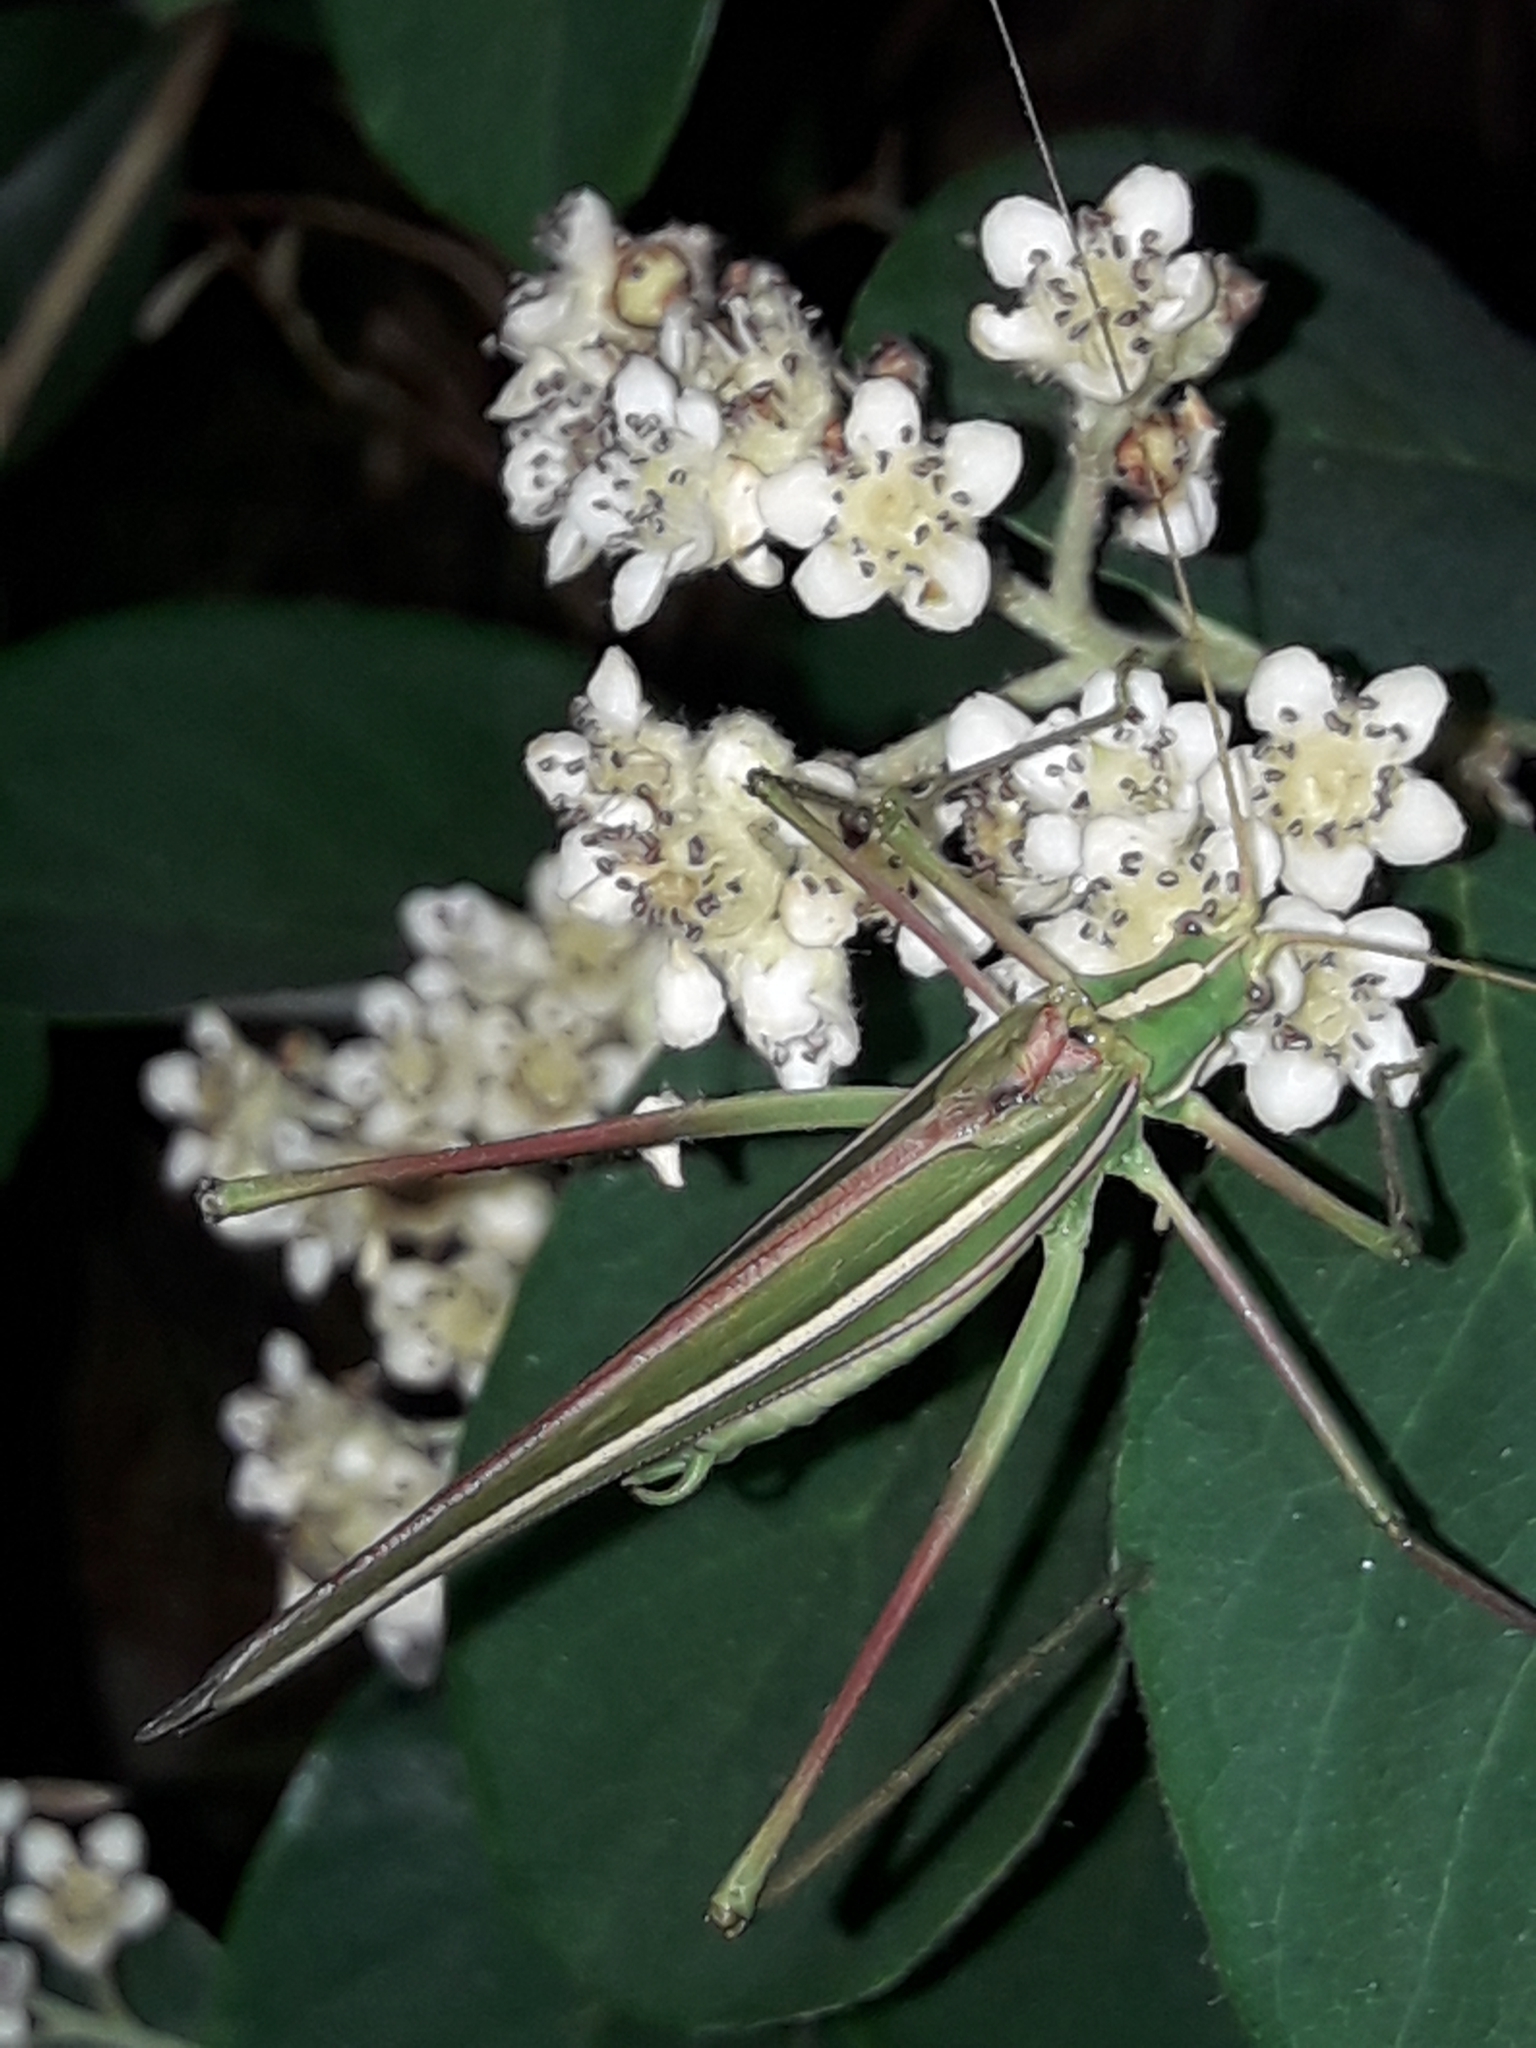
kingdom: Animalia
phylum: Arthropoda
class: Insecta
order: Orthoptera
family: Tettigoniidae
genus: Tinzeda
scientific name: Tinzeda albosignata
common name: Stout tinzeda
